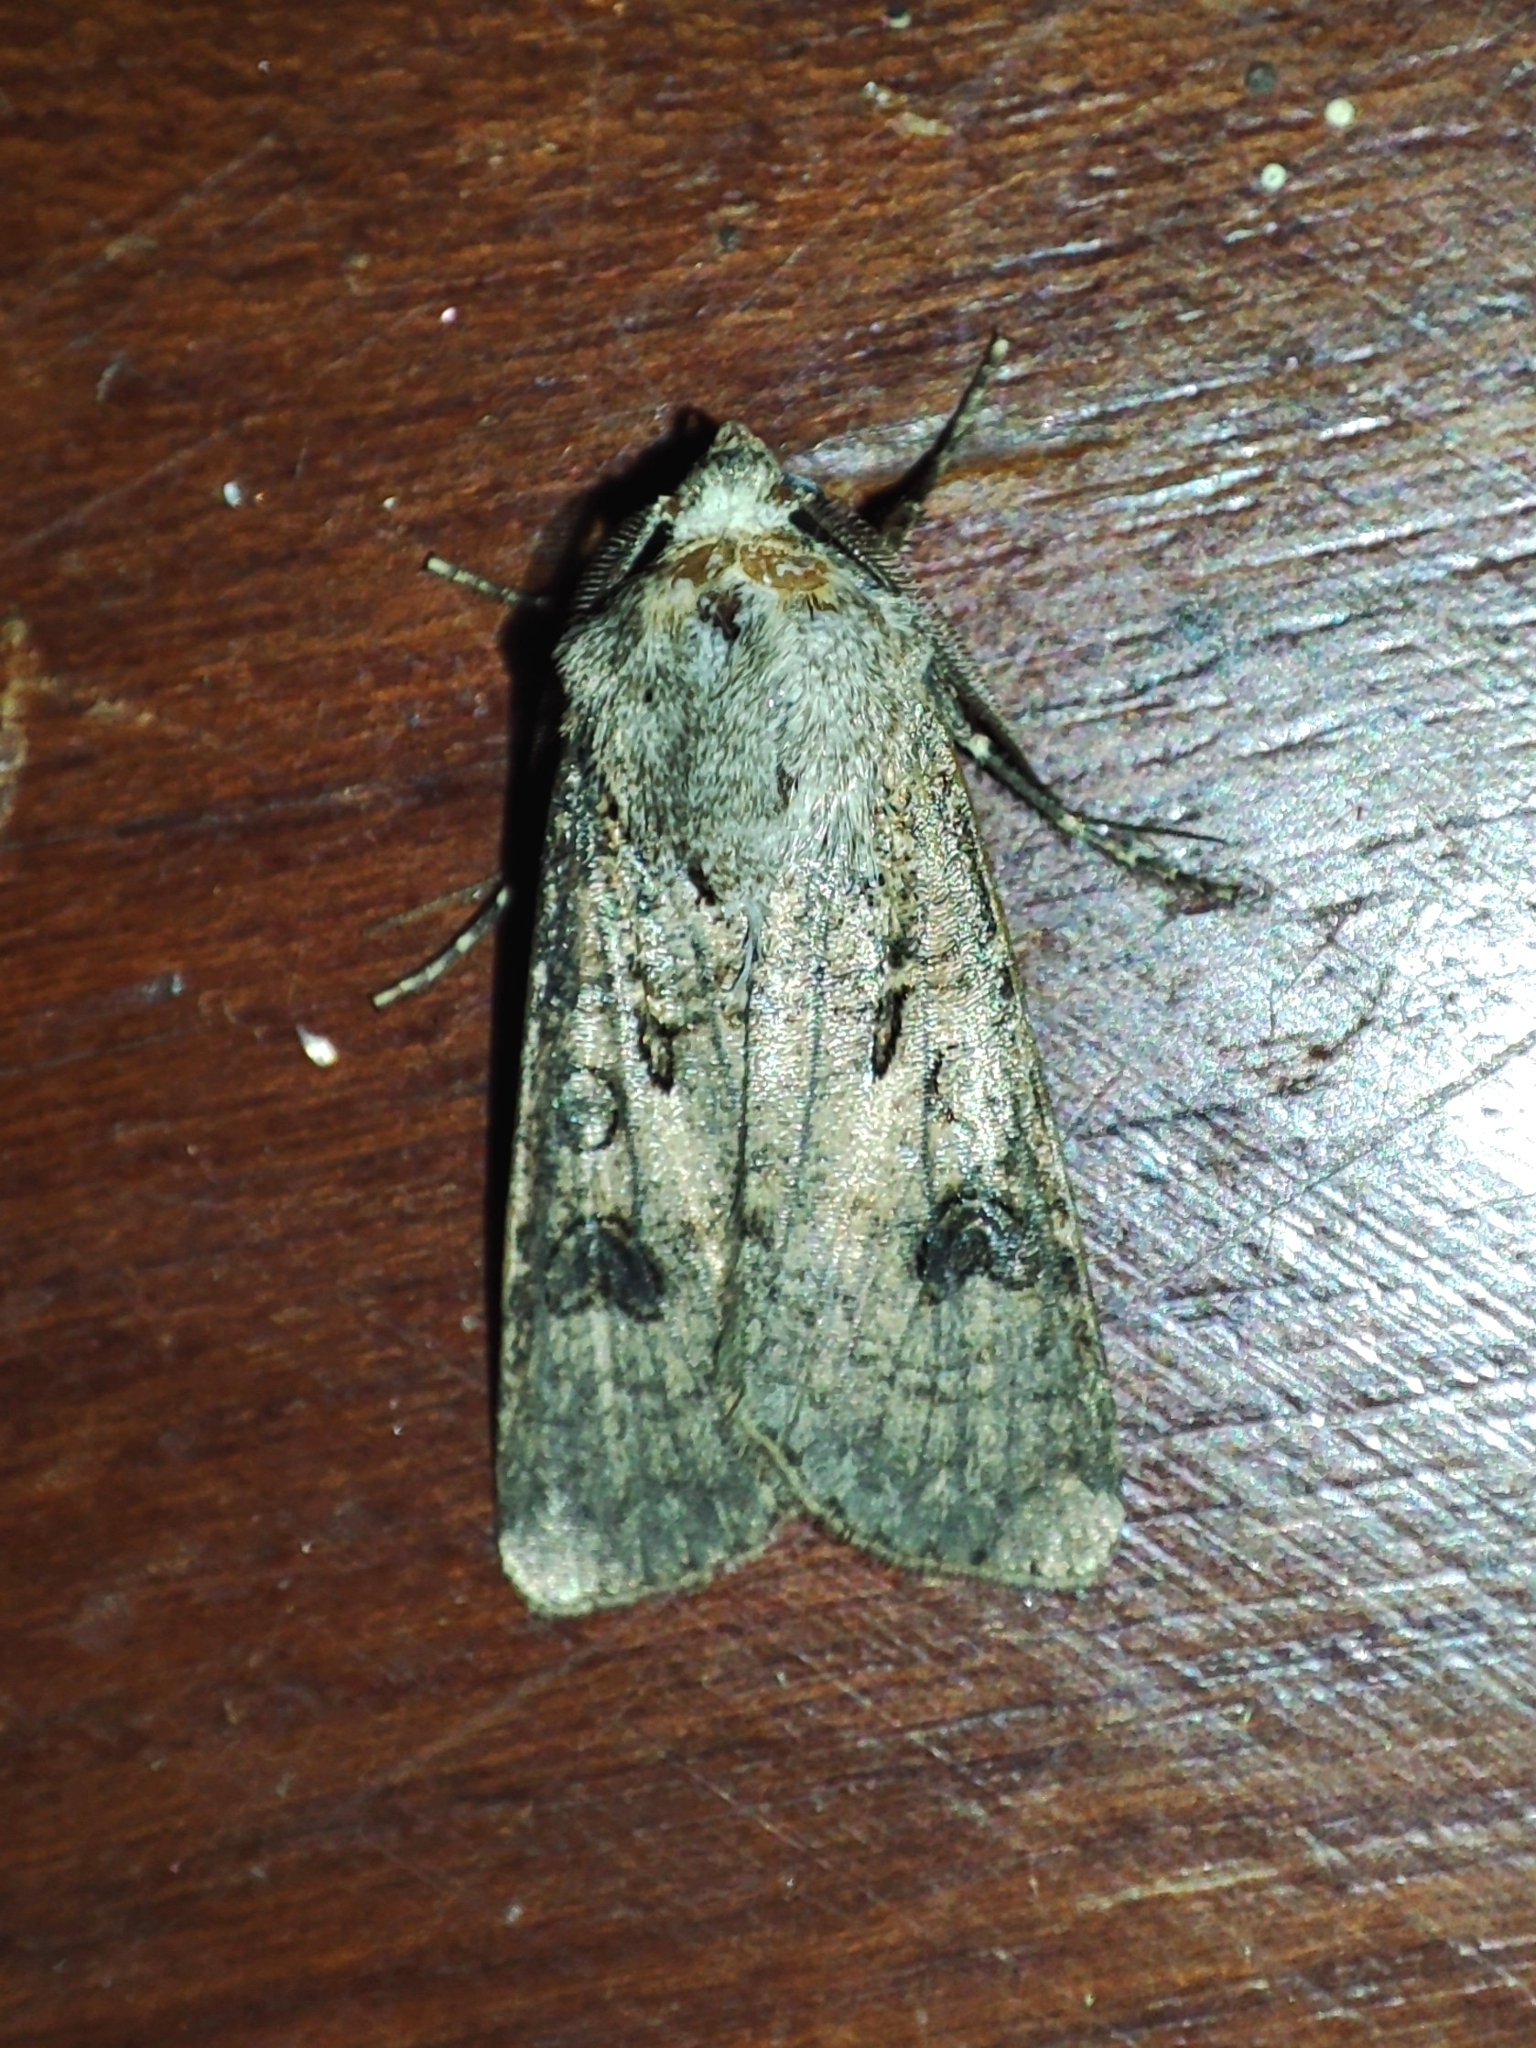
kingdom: Animalia
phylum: Arthropoda
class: Insecta
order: Lepidoptera
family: Noctuidae
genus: Agrotis
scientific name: Agrotis segetum
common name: Turnip moth
